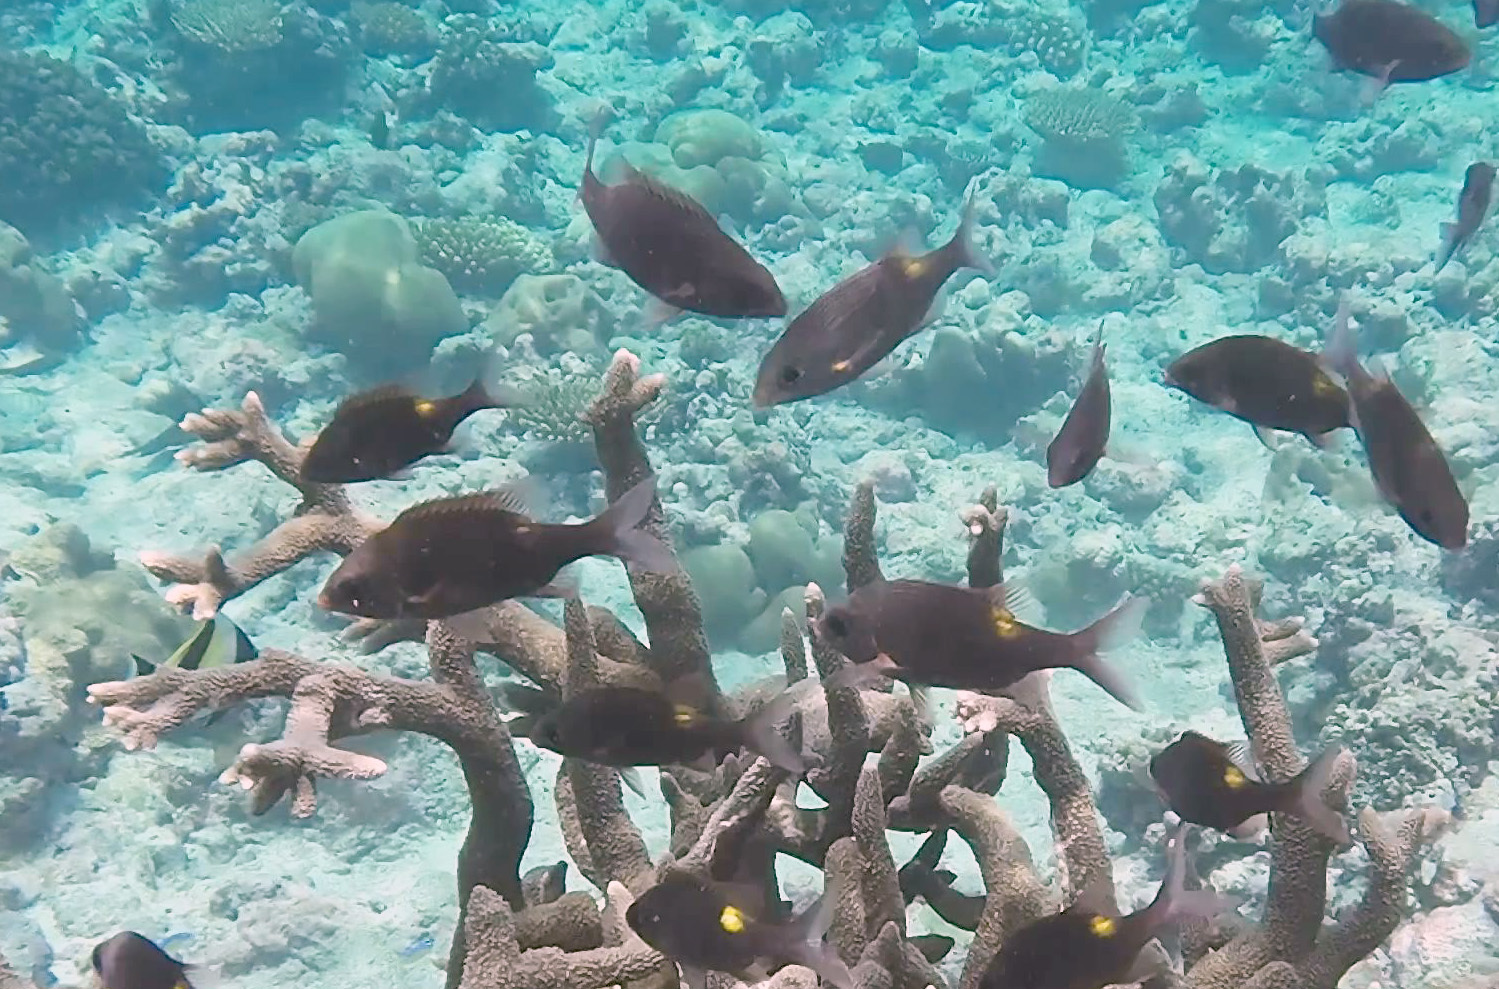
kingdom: Animalia
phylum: Chordata
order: Perciformes
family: Lethrinidae
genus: Gnathodentex
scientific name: Gnathodentex aureolineatus
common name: Gold-lined sea bream
